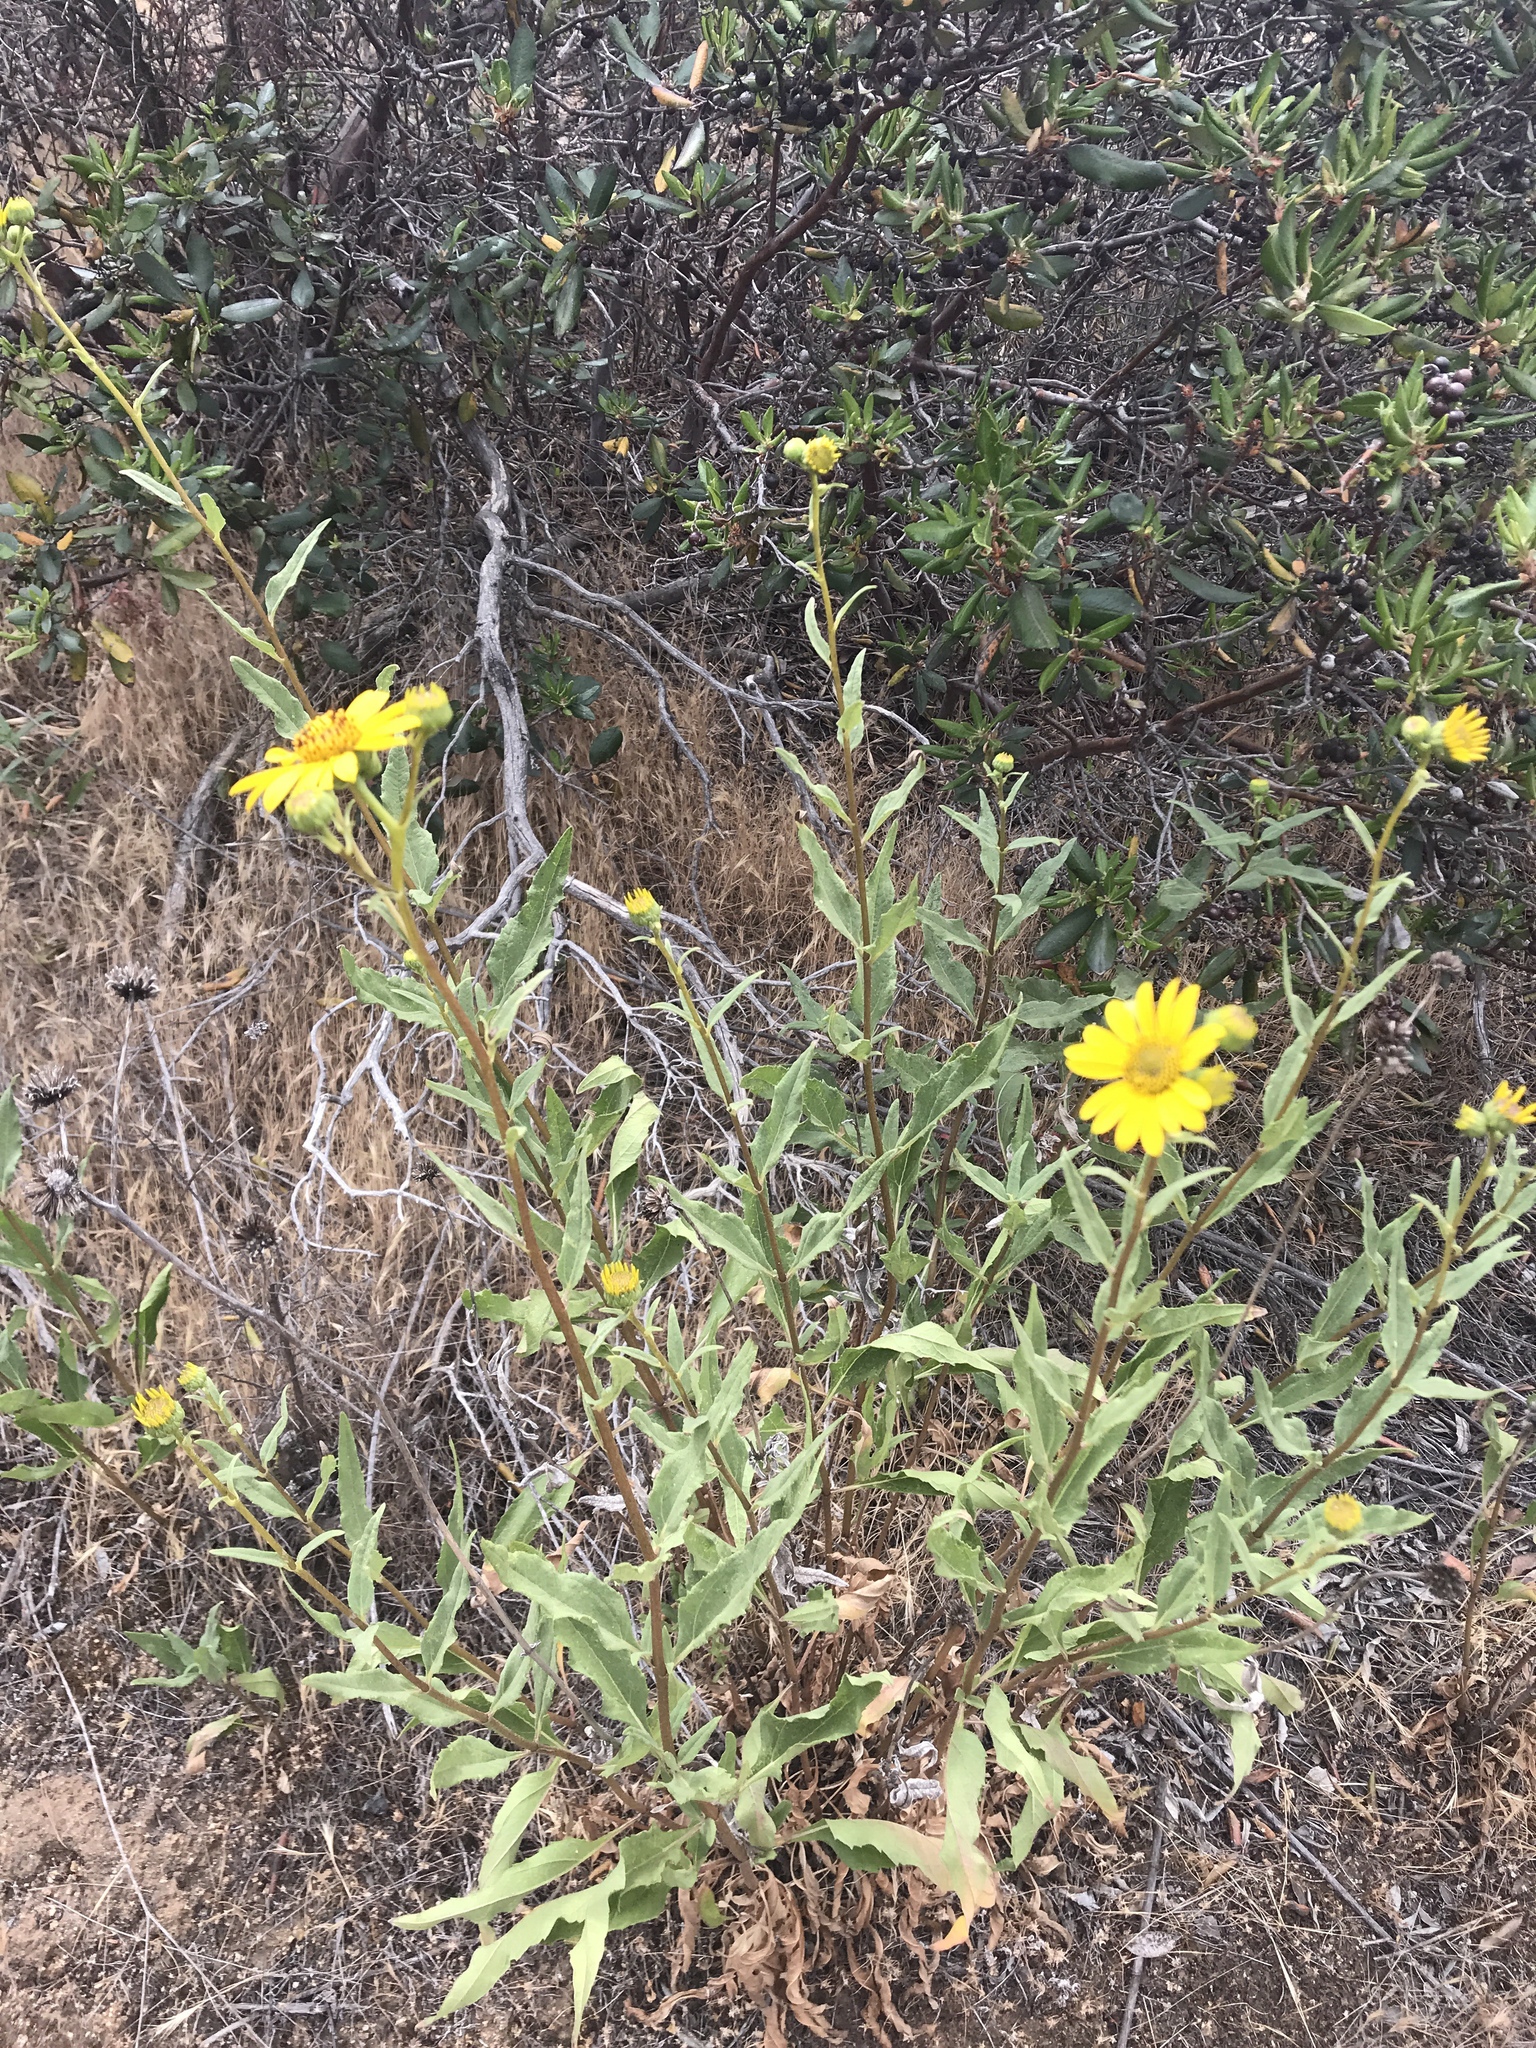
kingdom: Plantae
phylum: Tracheophyta
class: Magnoliopsida
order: Asterales
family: Asteraceae
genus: Helianthus
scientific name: Helianthus gracilentus
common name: Slender sunflower
